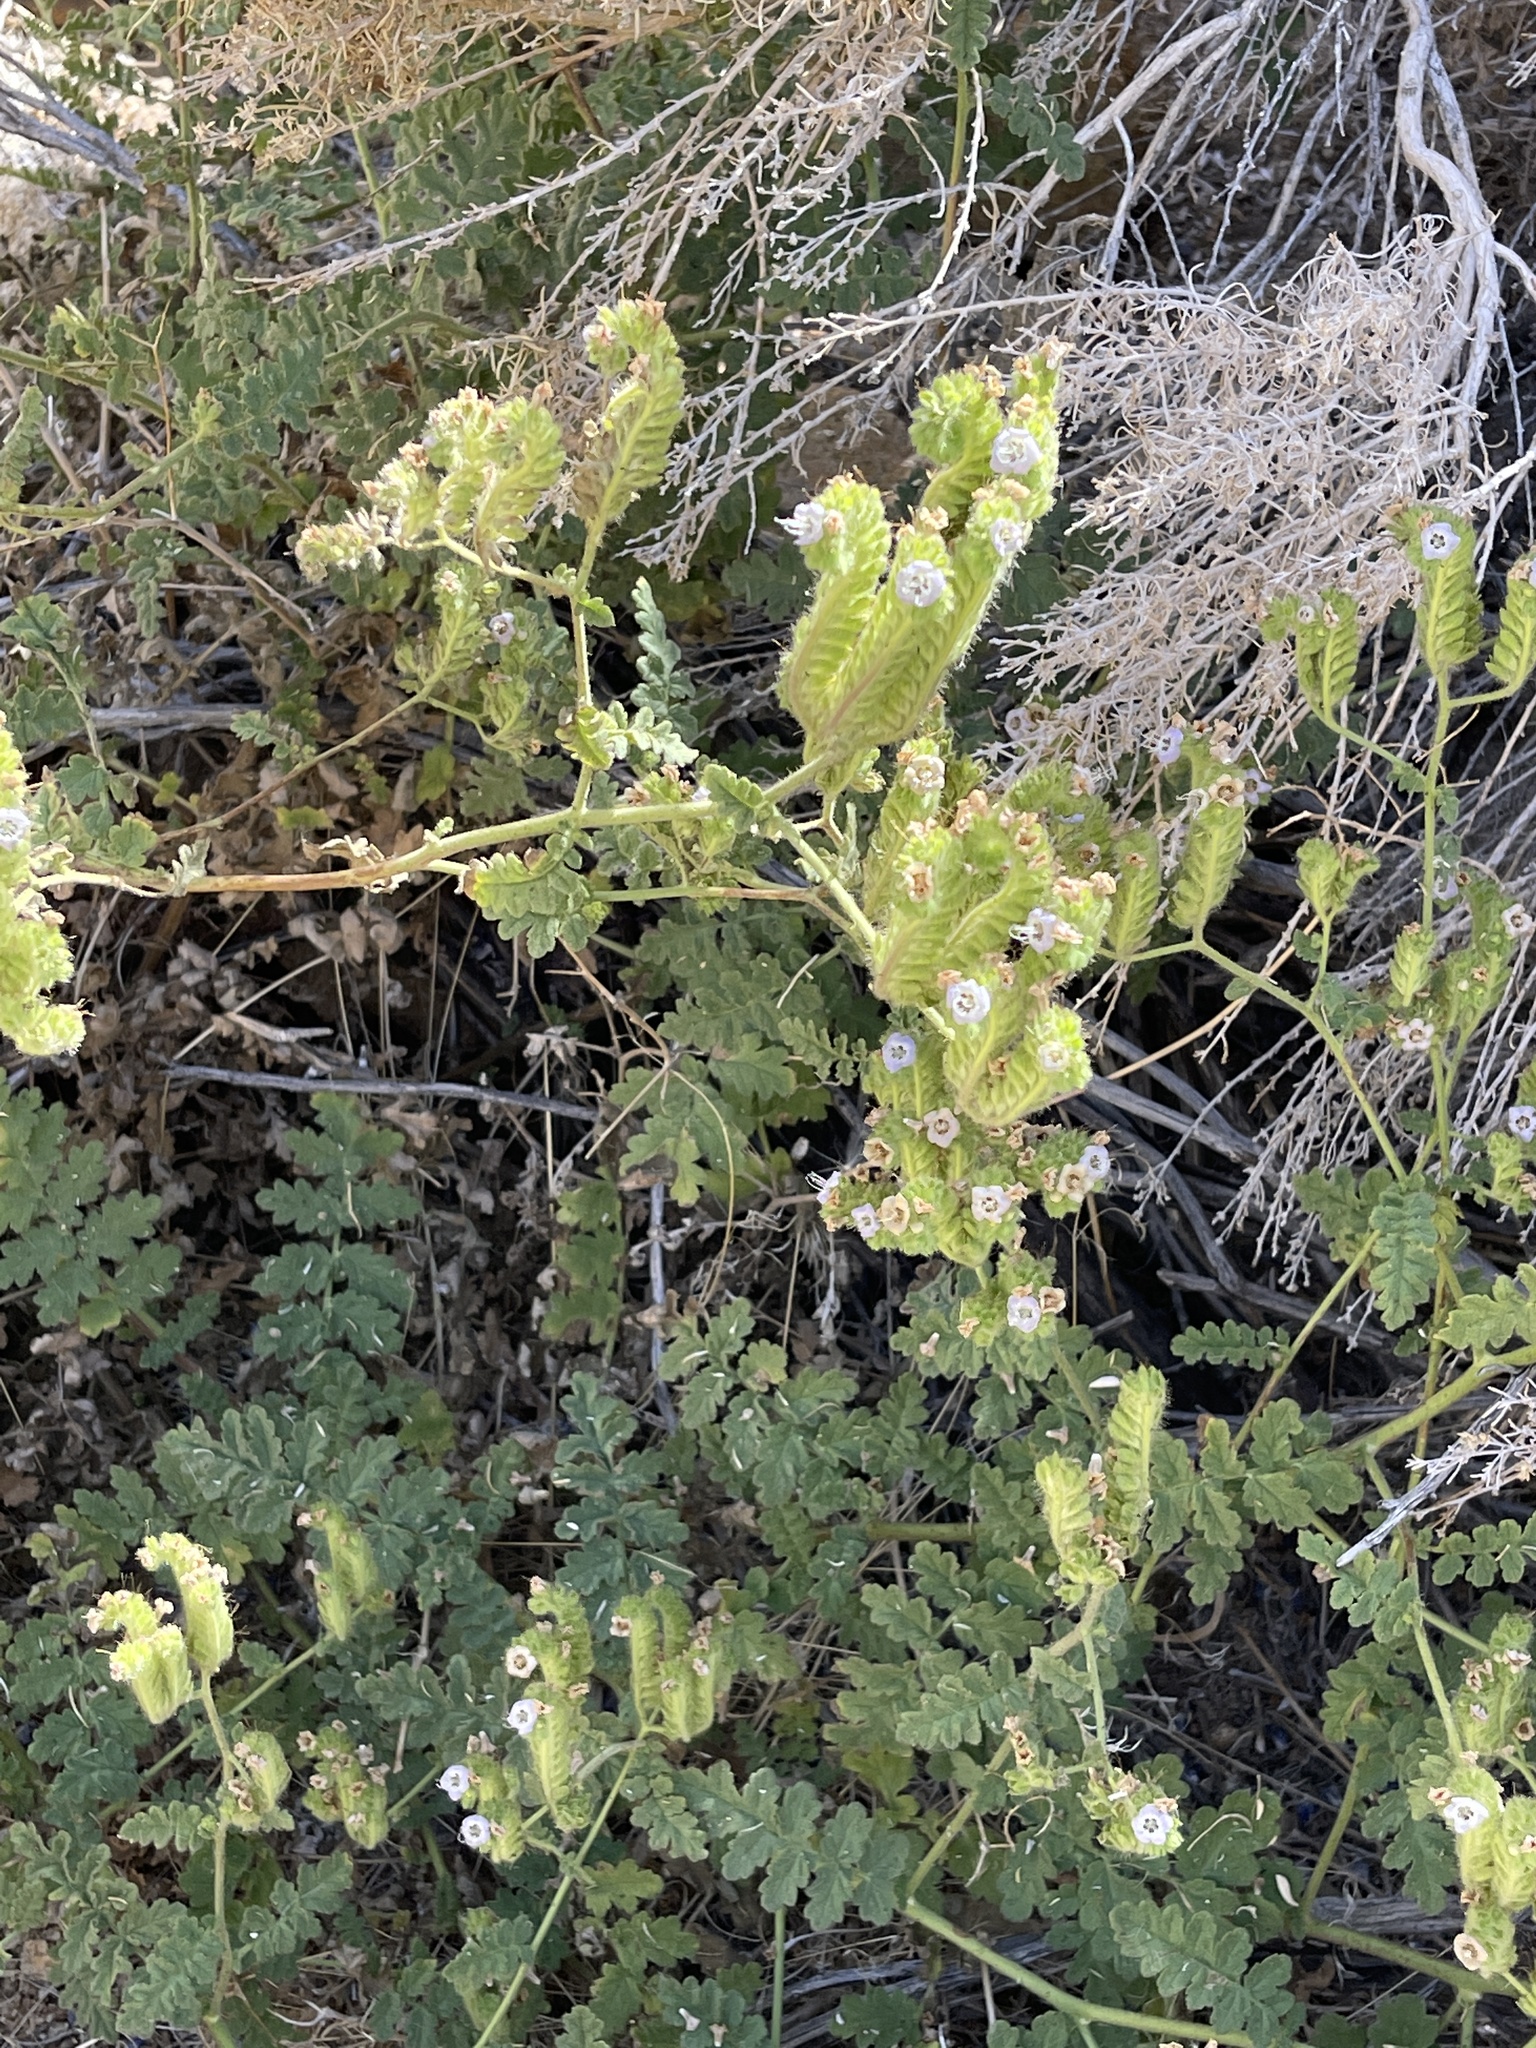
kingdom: Plantae
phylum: Tracheophyta
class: Magnoliopsida
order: Boraginales
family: Hydrophyllaceae
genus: Phacelia
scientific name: Phacelia ramosissima
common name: Branching phacelia
